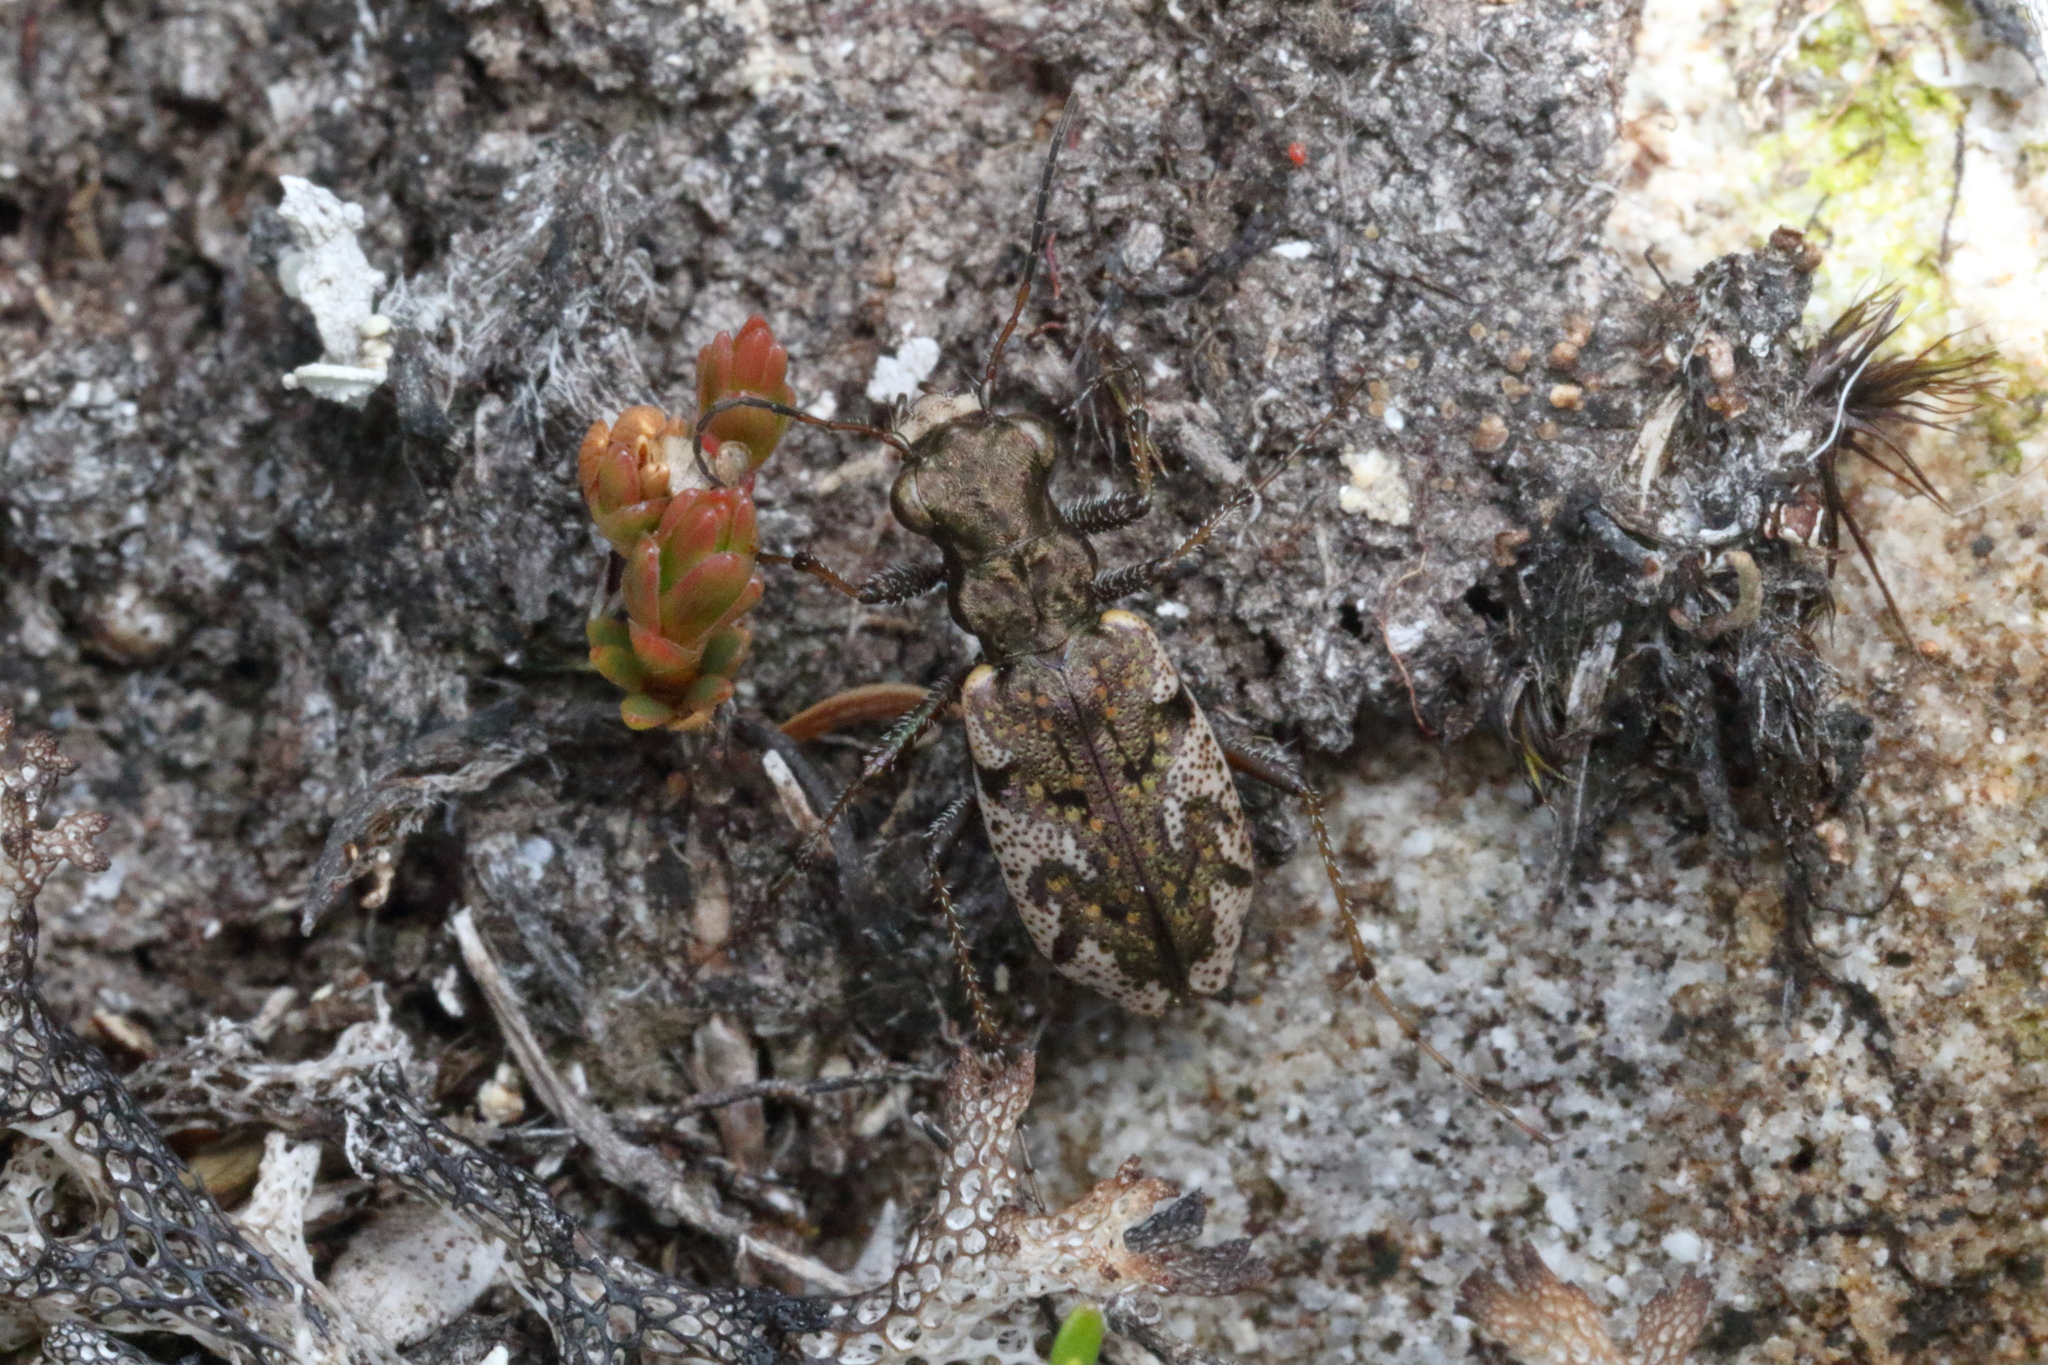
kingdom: Animalia
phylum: Arthropoda
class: Insecta
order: Coleoptera
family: Carabidae
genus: Neocicindela
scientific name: Neocicindela garnerae
